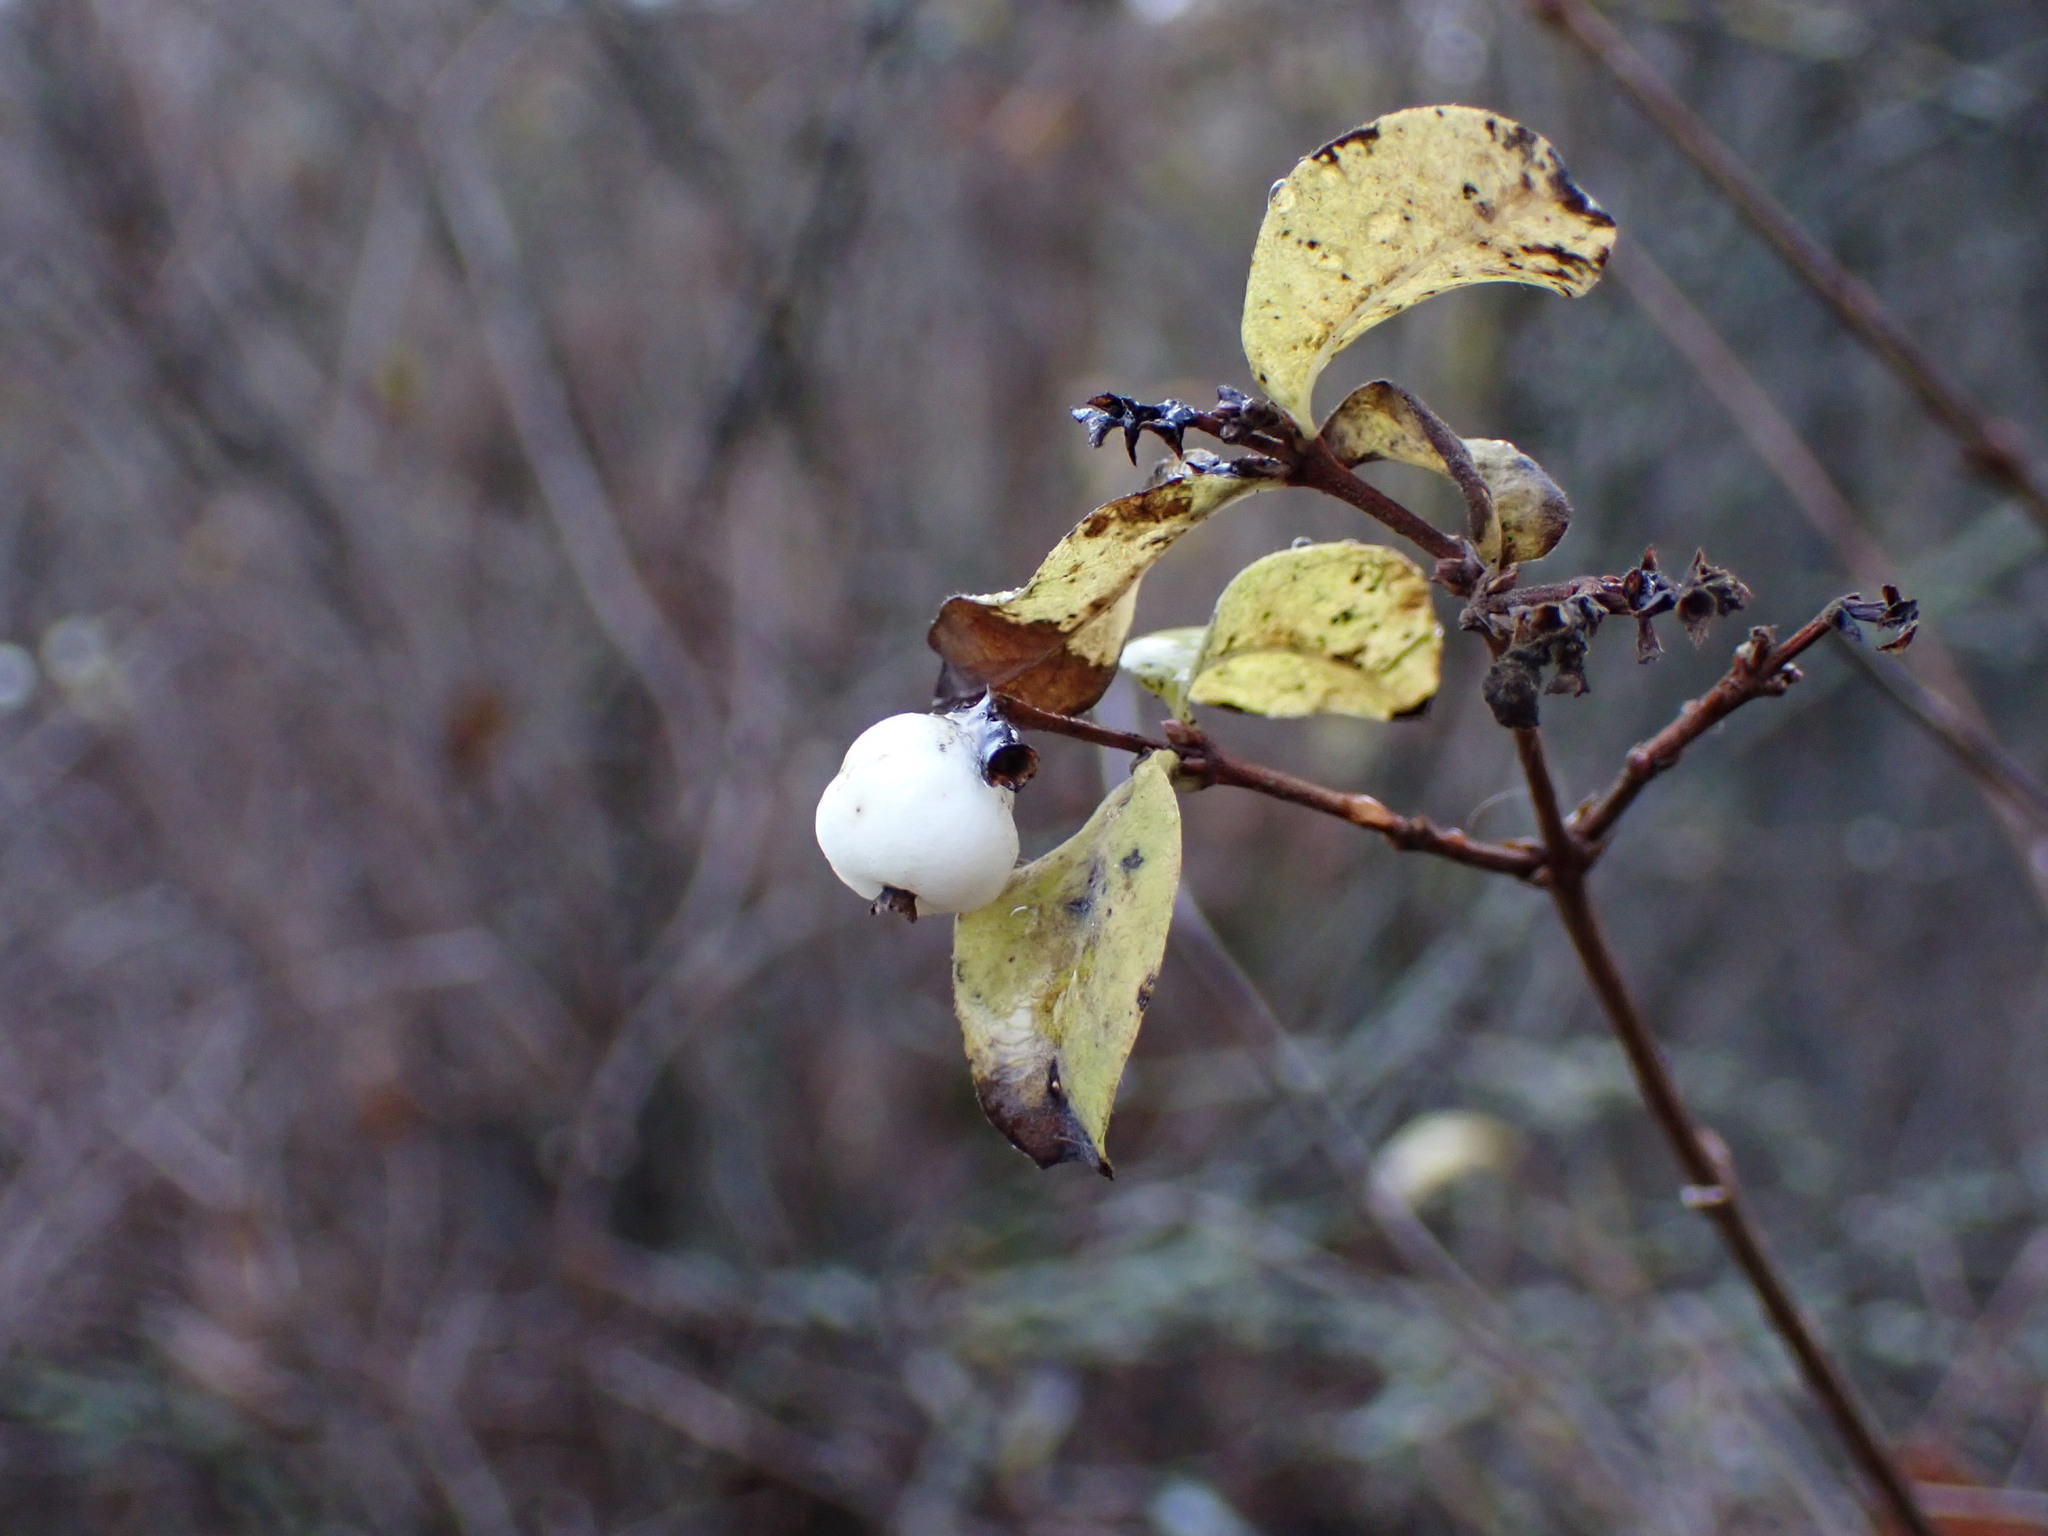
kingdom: Plantae
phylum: Tracheophyta
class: Magnoliopsida
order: Dipsacales
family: Caprifoliaceae
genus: Symphoricarpos
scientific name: Symphoricarpos albus
